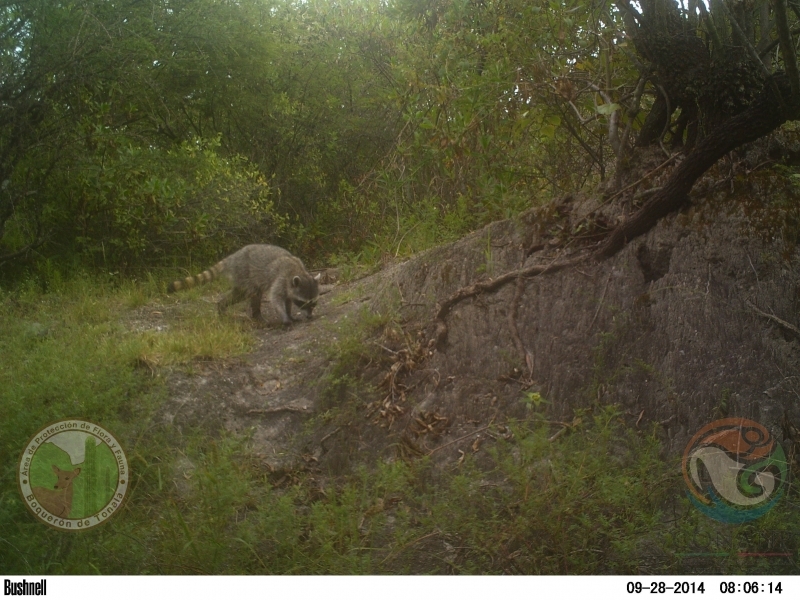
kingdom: Animalia
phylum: Chordata
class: Mammalia
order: Carnivora
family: Procyonidae
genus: Procyon
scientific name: Procyon lotor
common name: Raccoon
